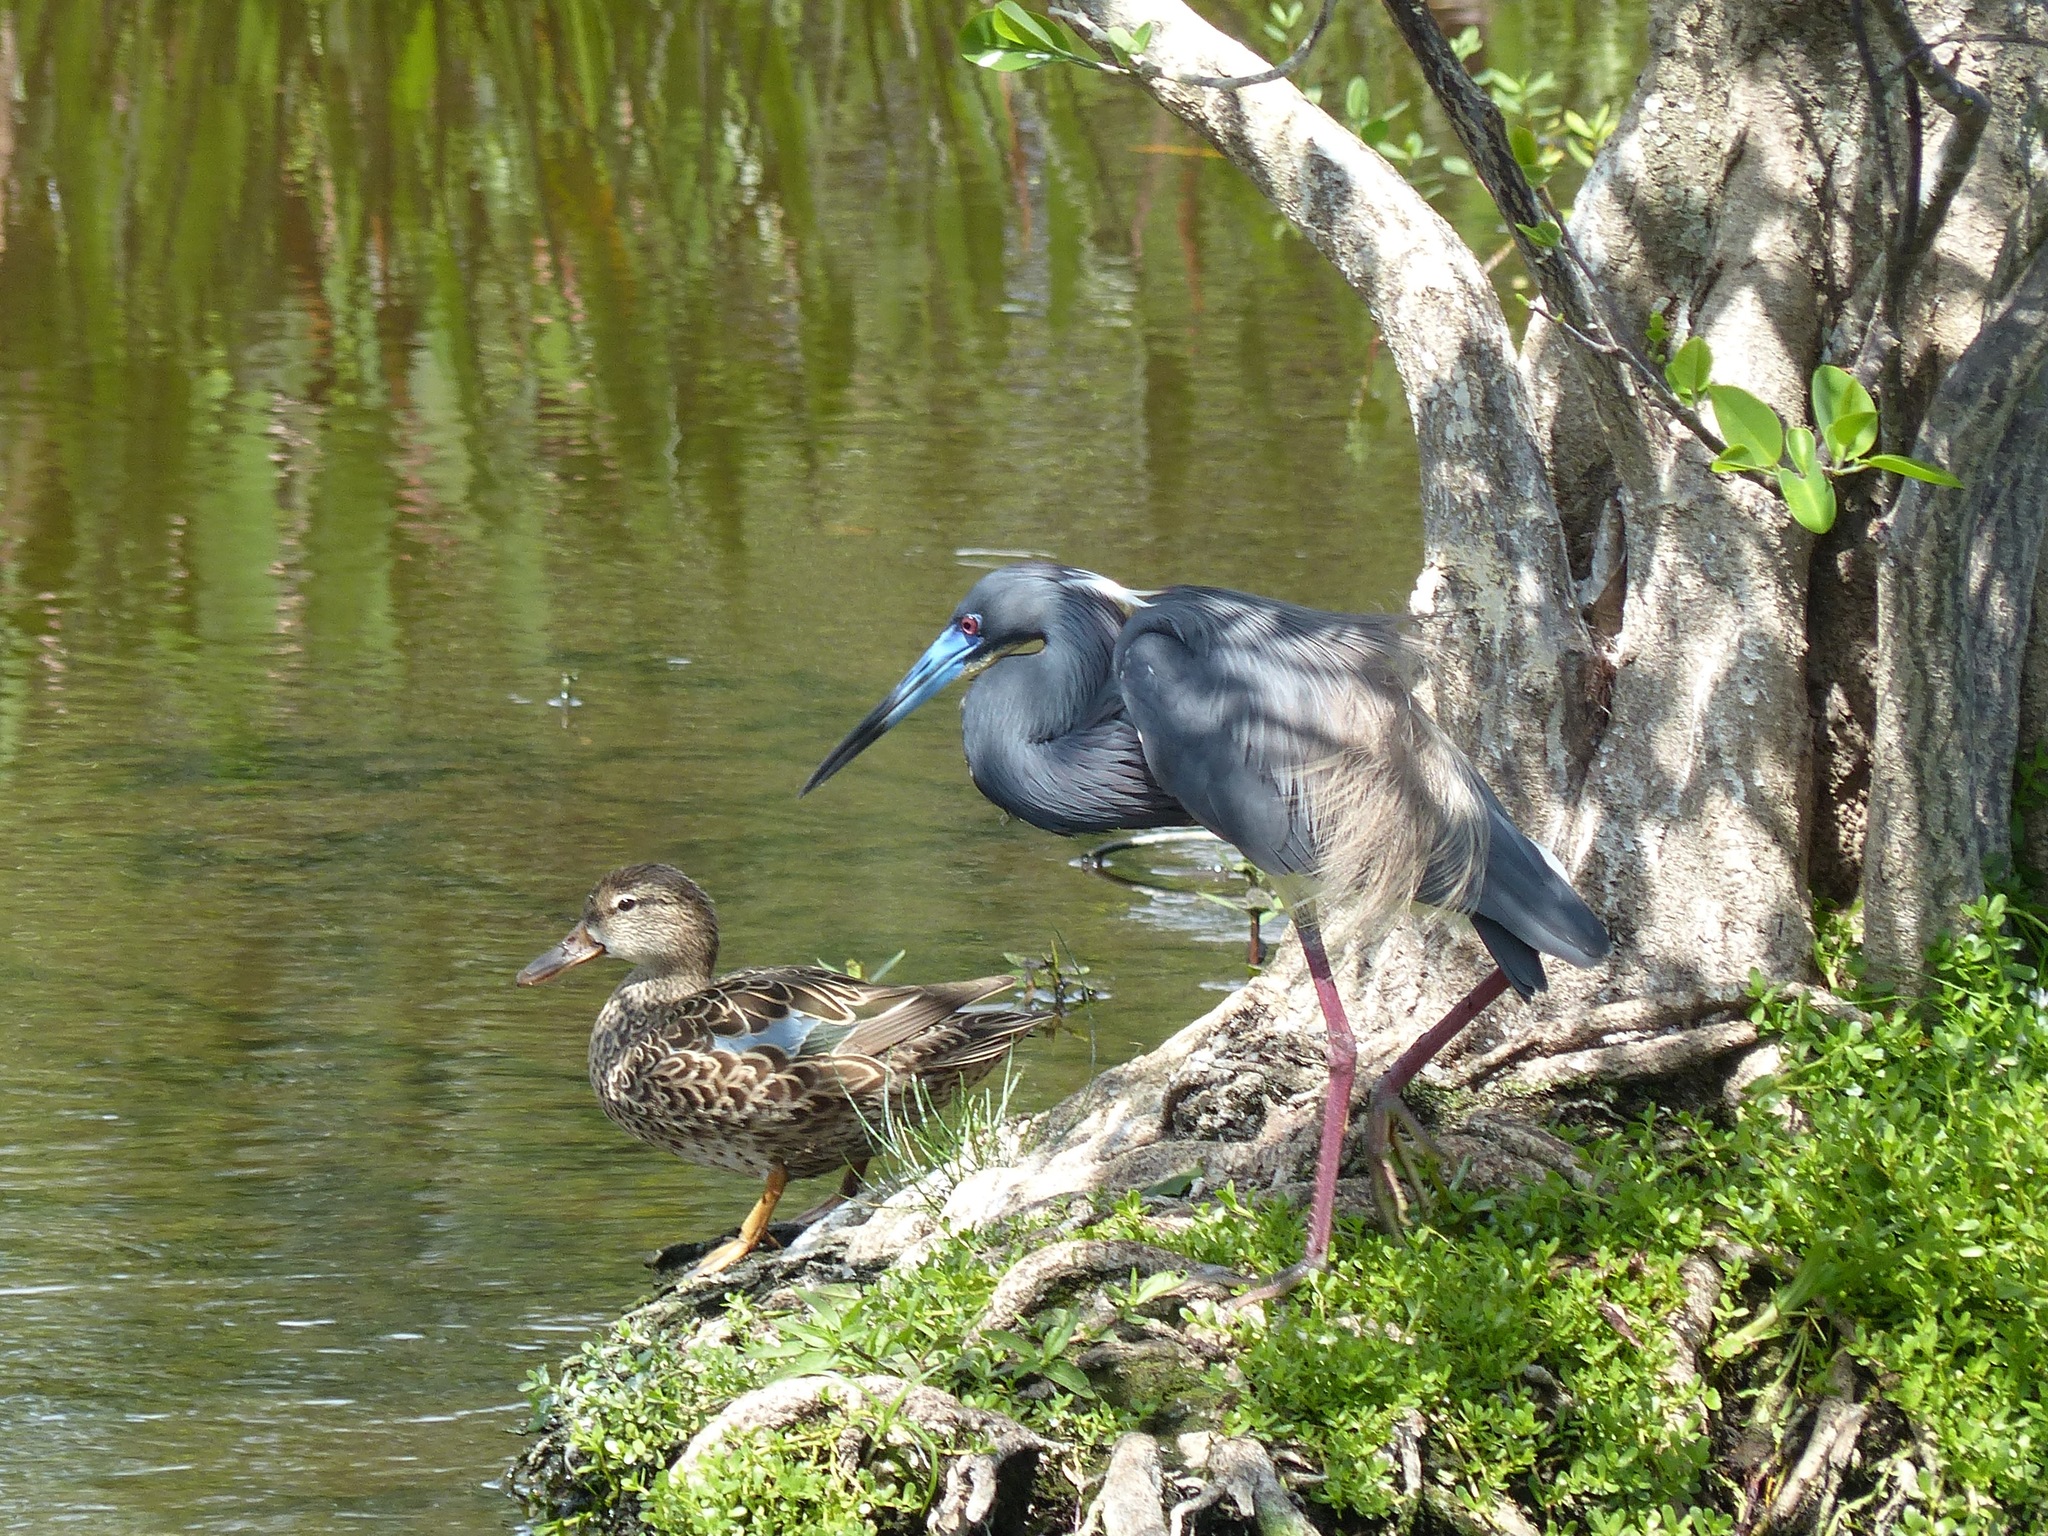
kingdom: Animalia
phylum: Chordata
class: Aves
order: Pelecaniformes
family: Ardeidae
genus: Egretta
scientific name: Egretta tricolor
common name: Tricolored heron
